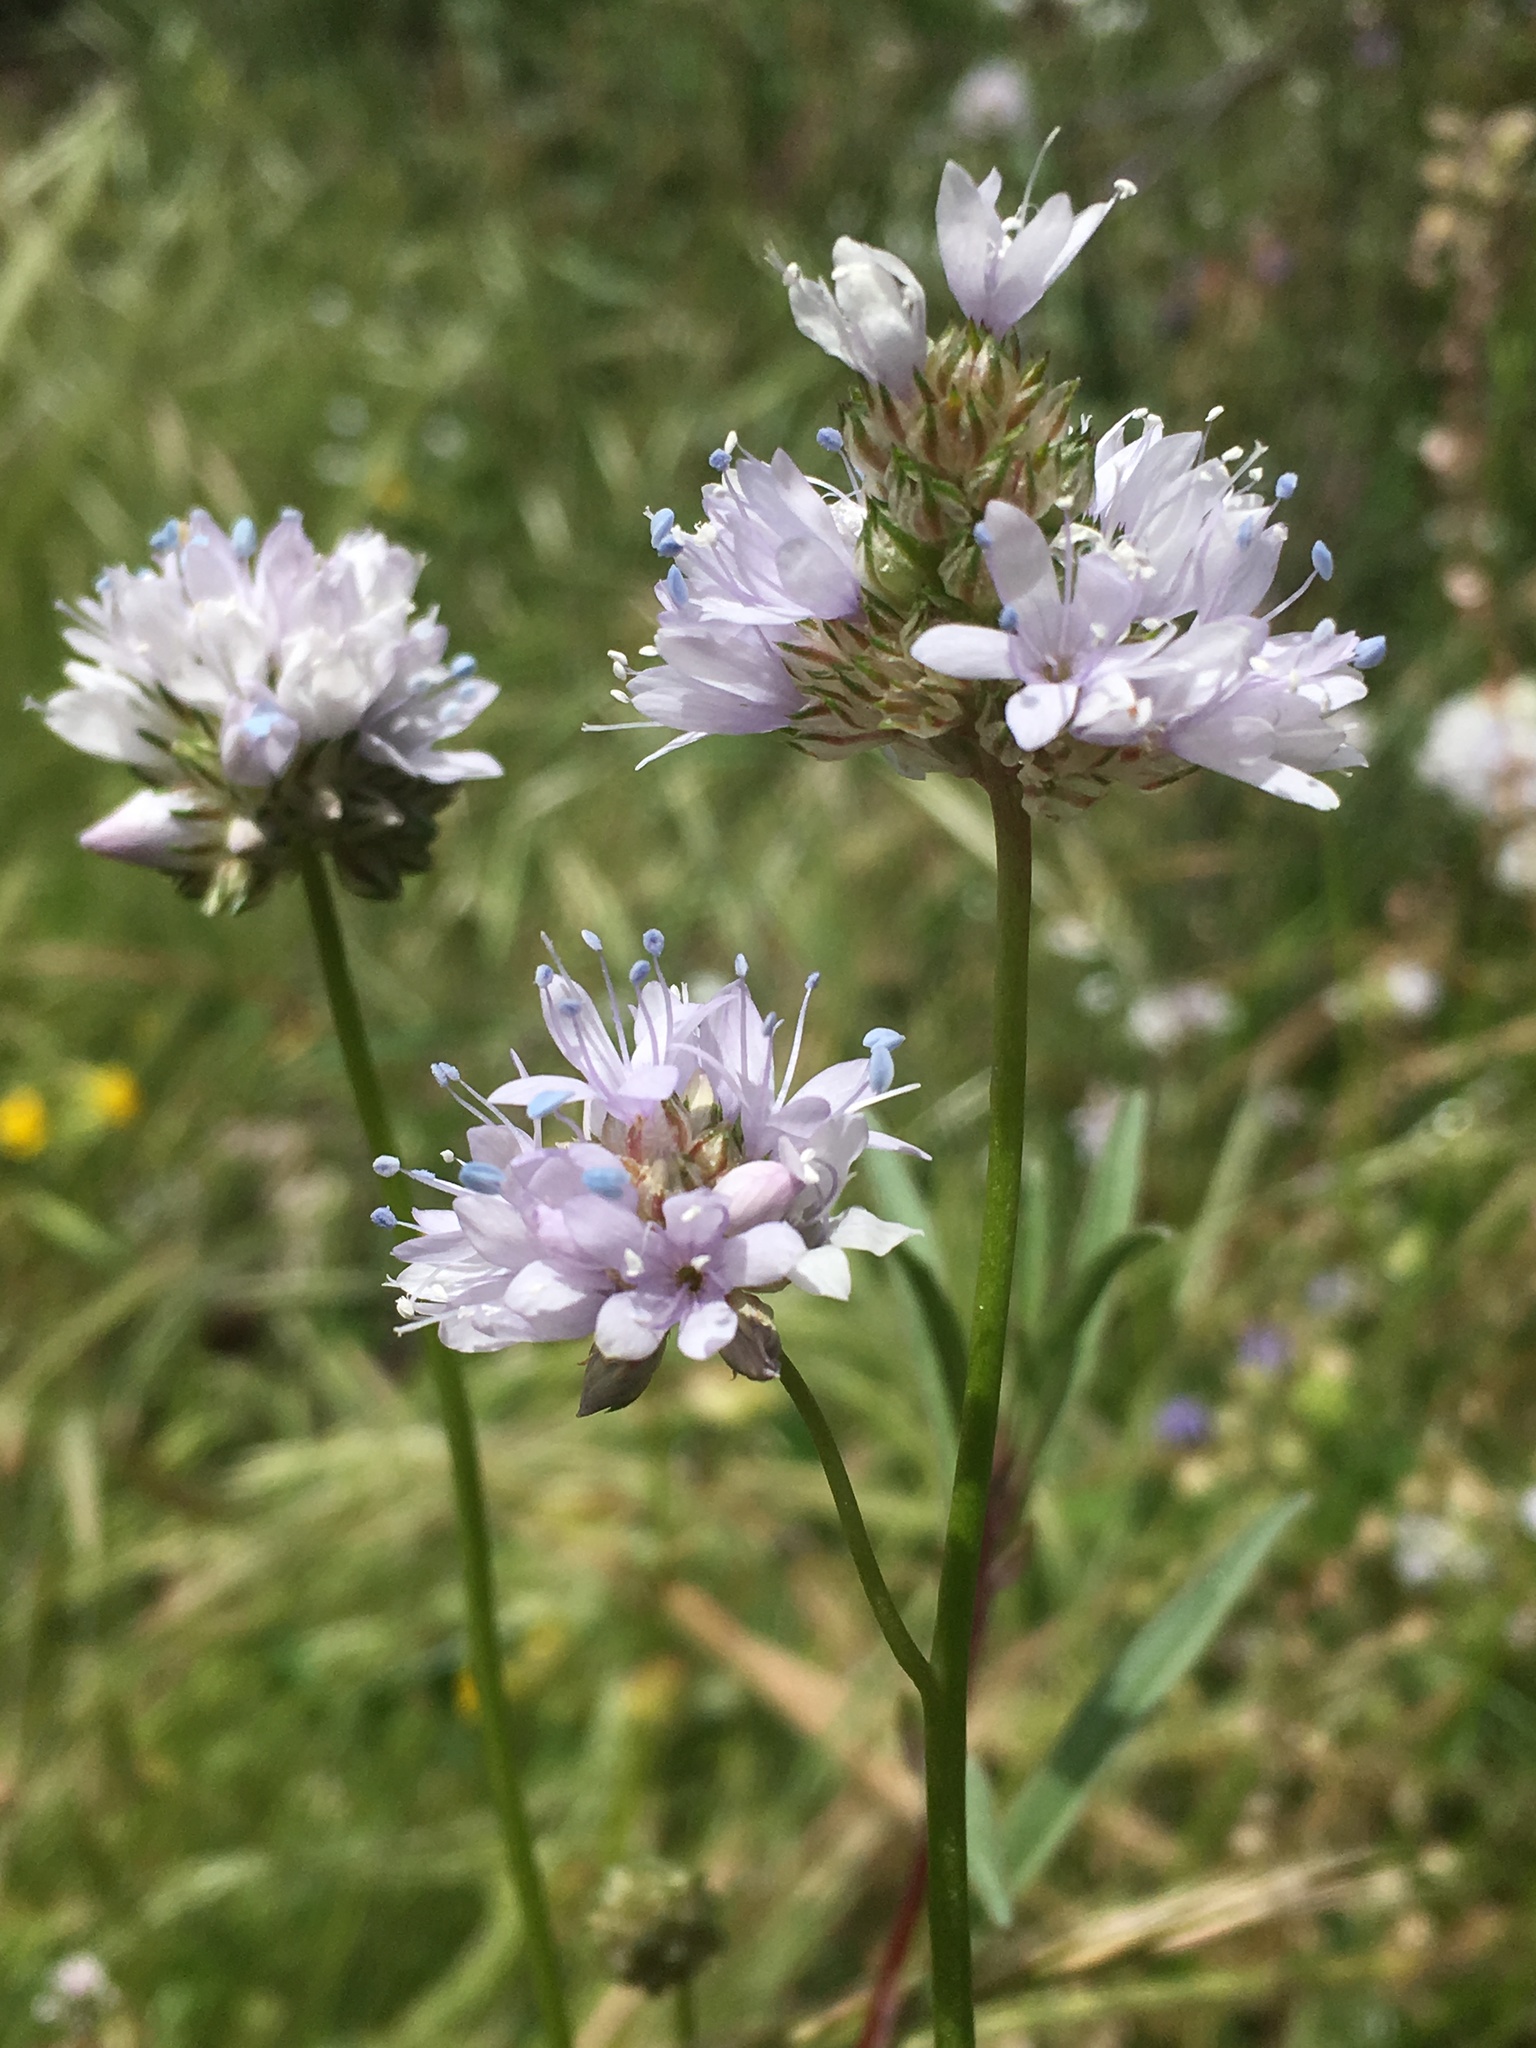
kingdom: Plantae
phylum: Tracheophyta
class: Magnoliopsida
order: Ericales
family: Polemoniaceae
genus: Gilia
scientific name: Gilia capitata
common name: Bluehead gilia
